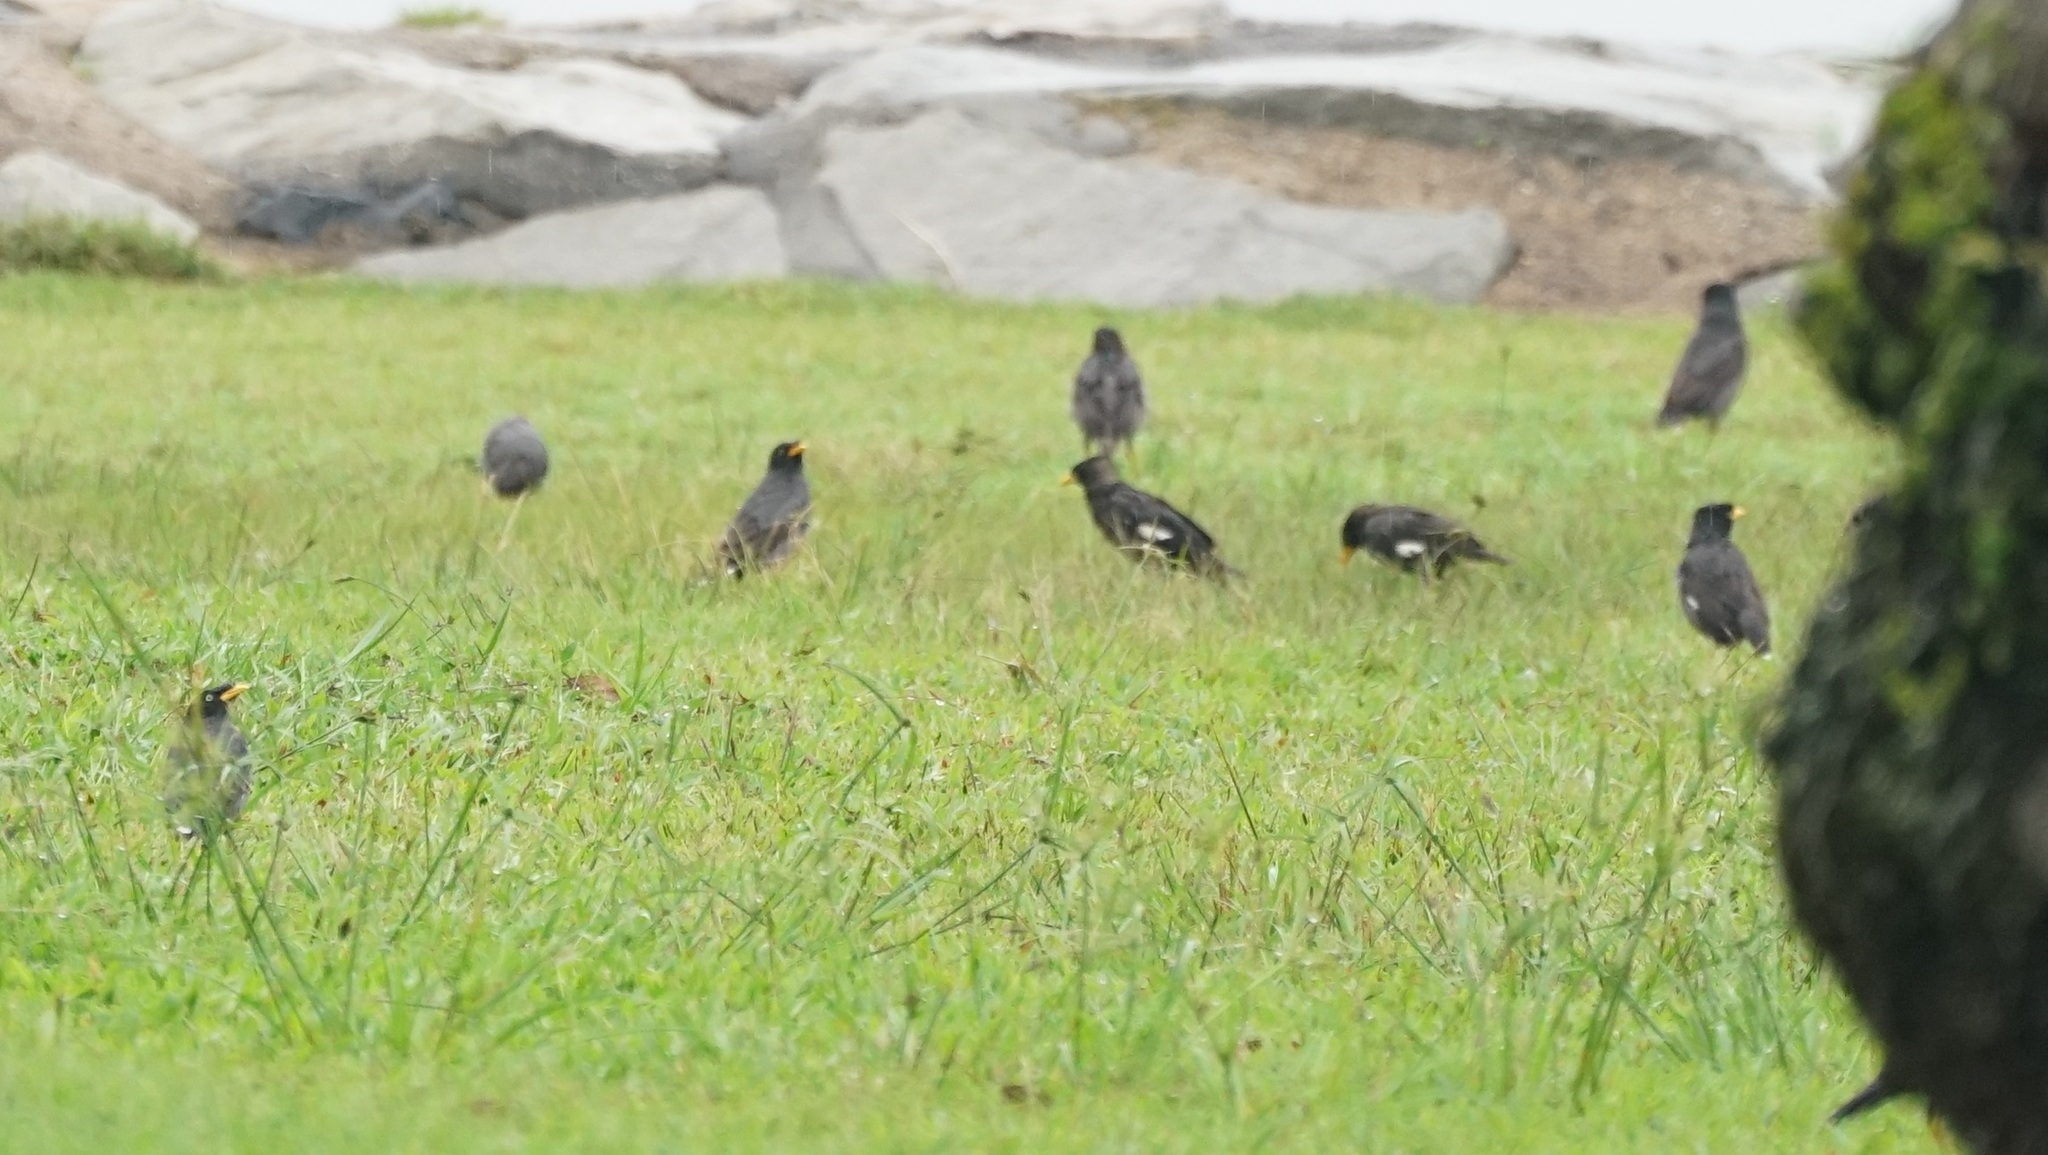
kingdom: Animalia
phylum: Chordata
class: Aves
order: Passeriformes
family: Sturnidae
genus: Acridotheres
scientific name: Acridotheres javanicus
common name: Javan myna
